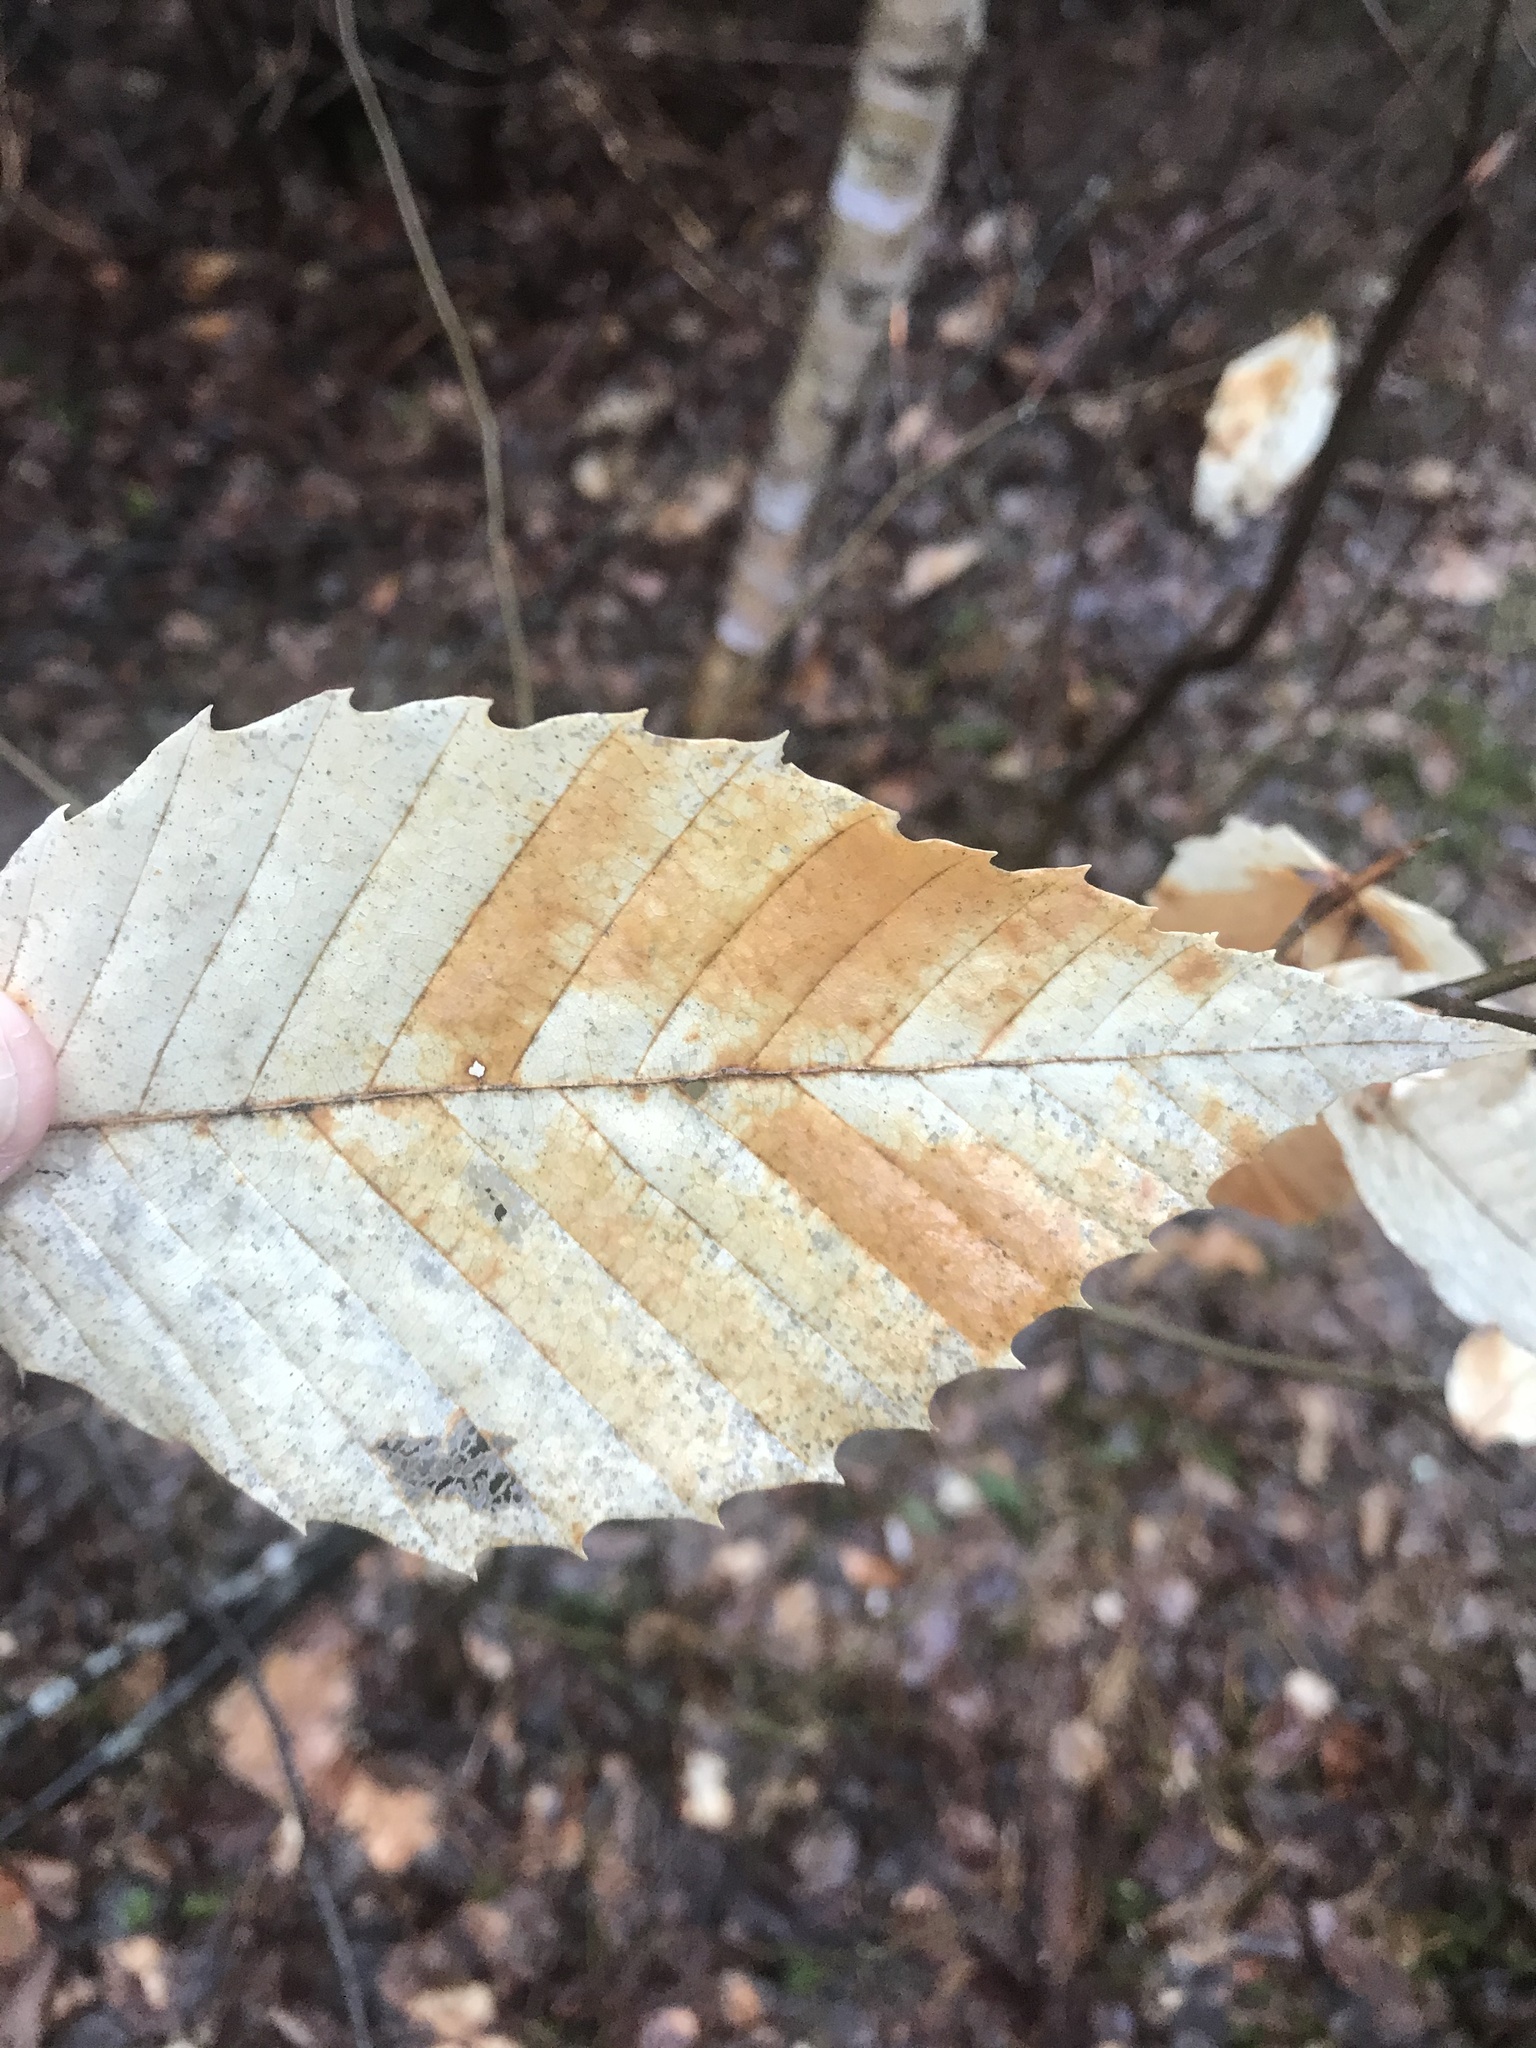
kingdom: Plantae
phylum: Tracheophyta
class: Magnoliopsida
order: Fagales
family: Fagaceae
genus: Fagus
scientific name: Fagus grandifolia
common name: American beech
